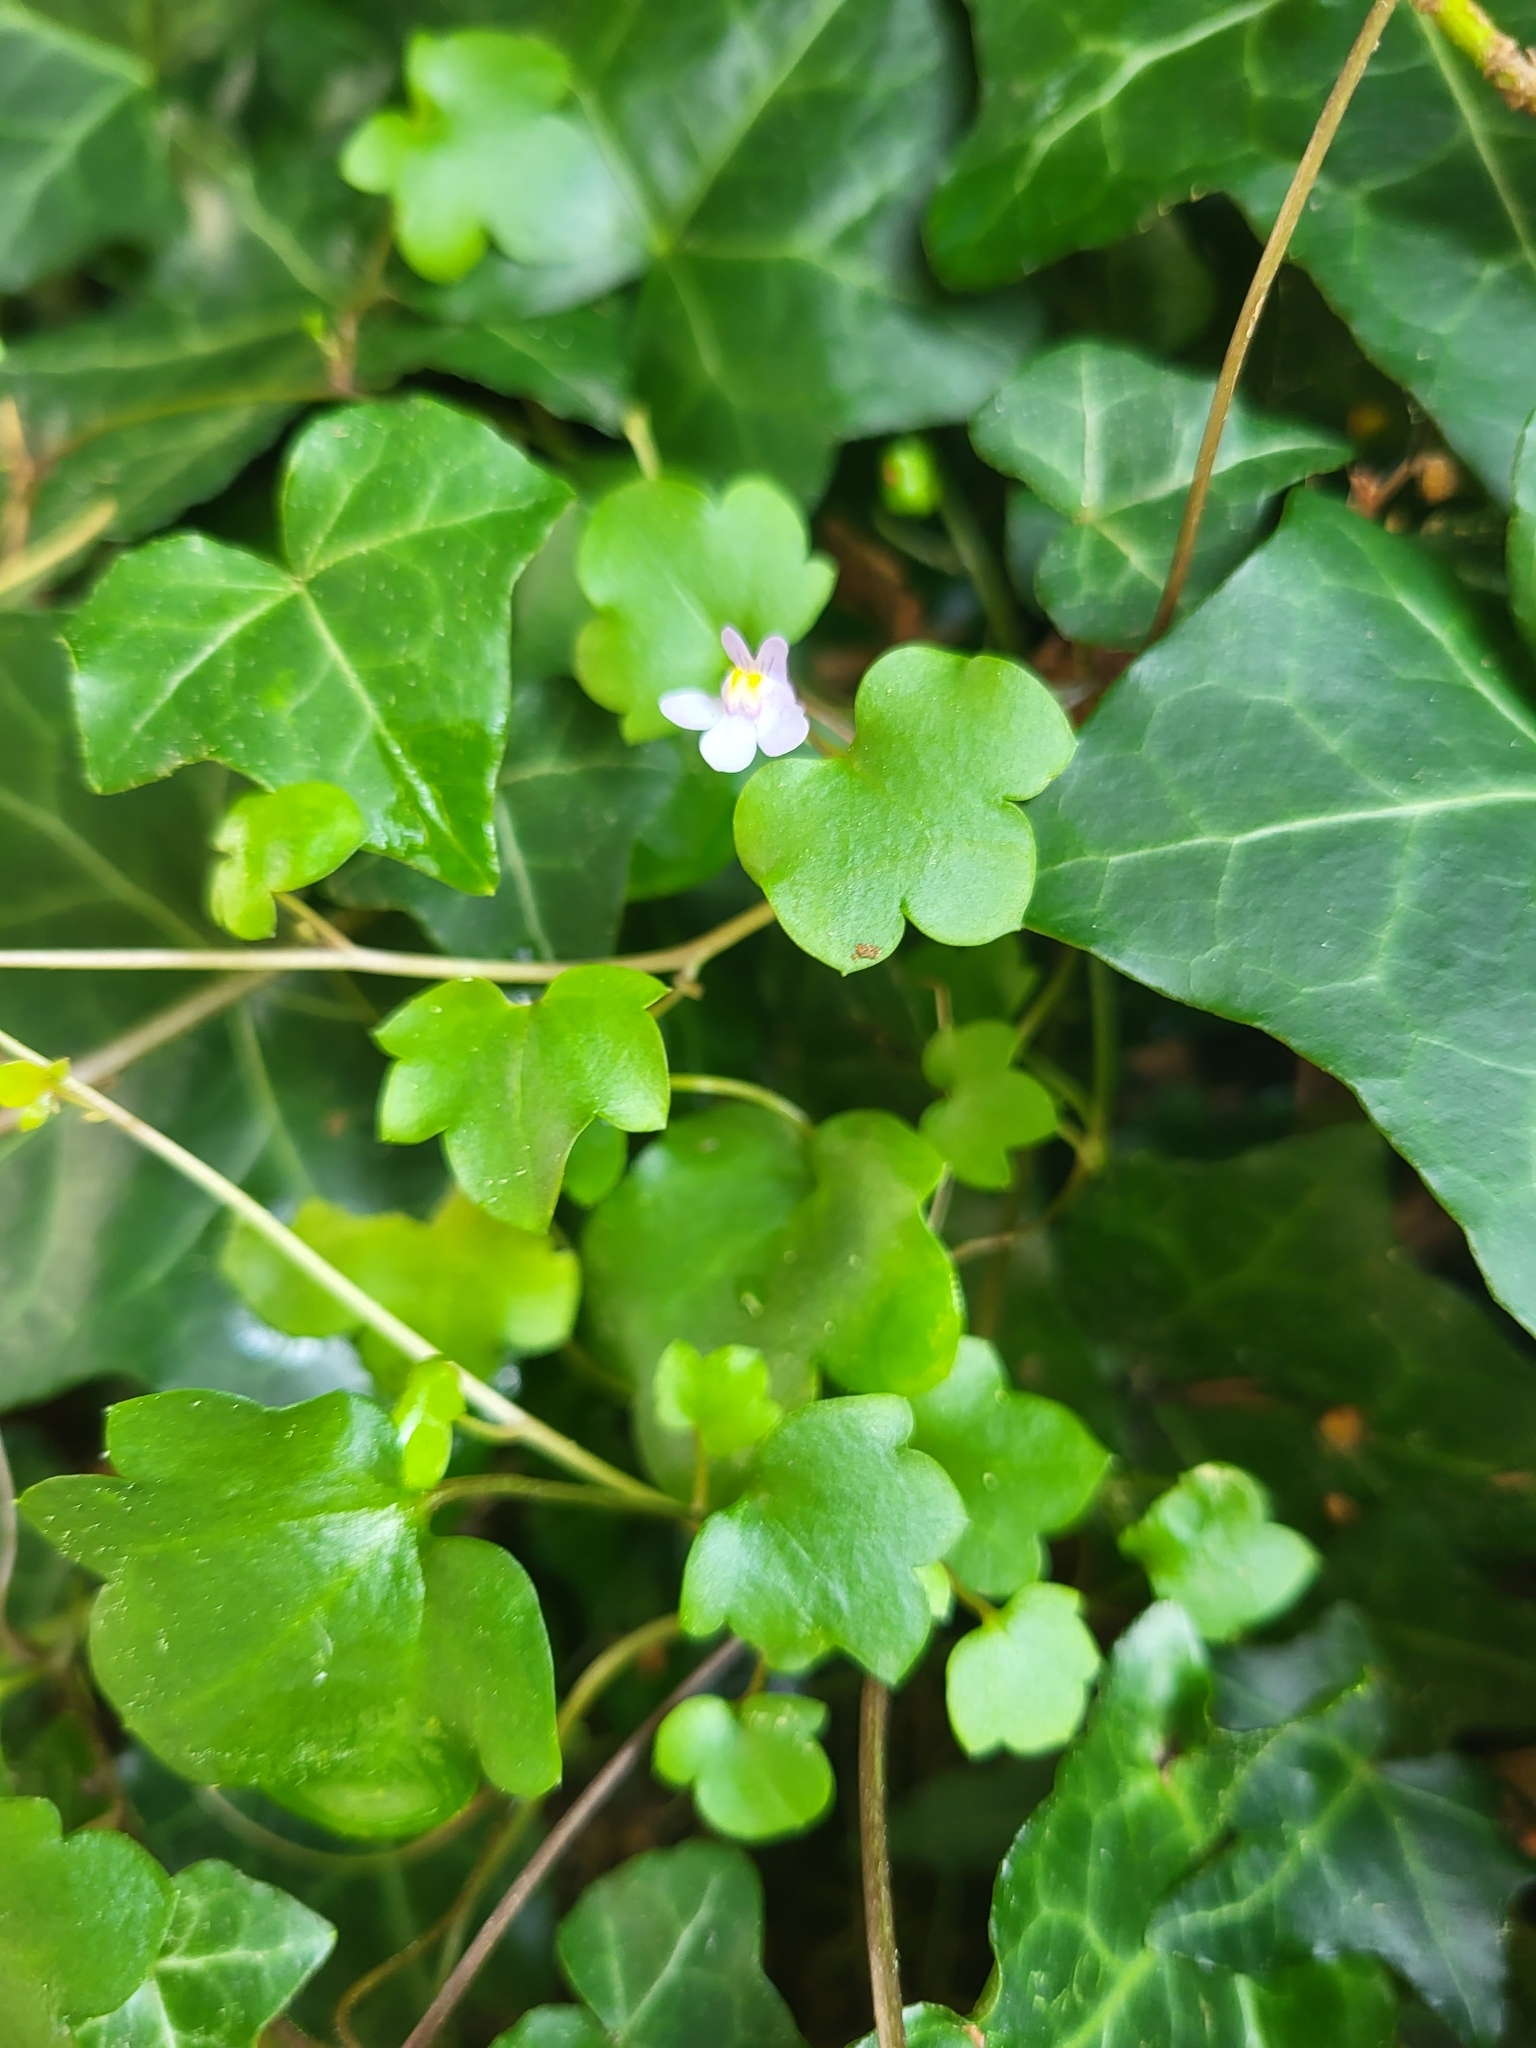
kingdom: Plantae
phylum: Tracheophyta
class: Magnoliopsida
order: Lamiales
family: Plantaginaceae
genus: Cymbalaria
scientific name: Cymbalaria muralis
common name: Ivy-leaved toadflax
